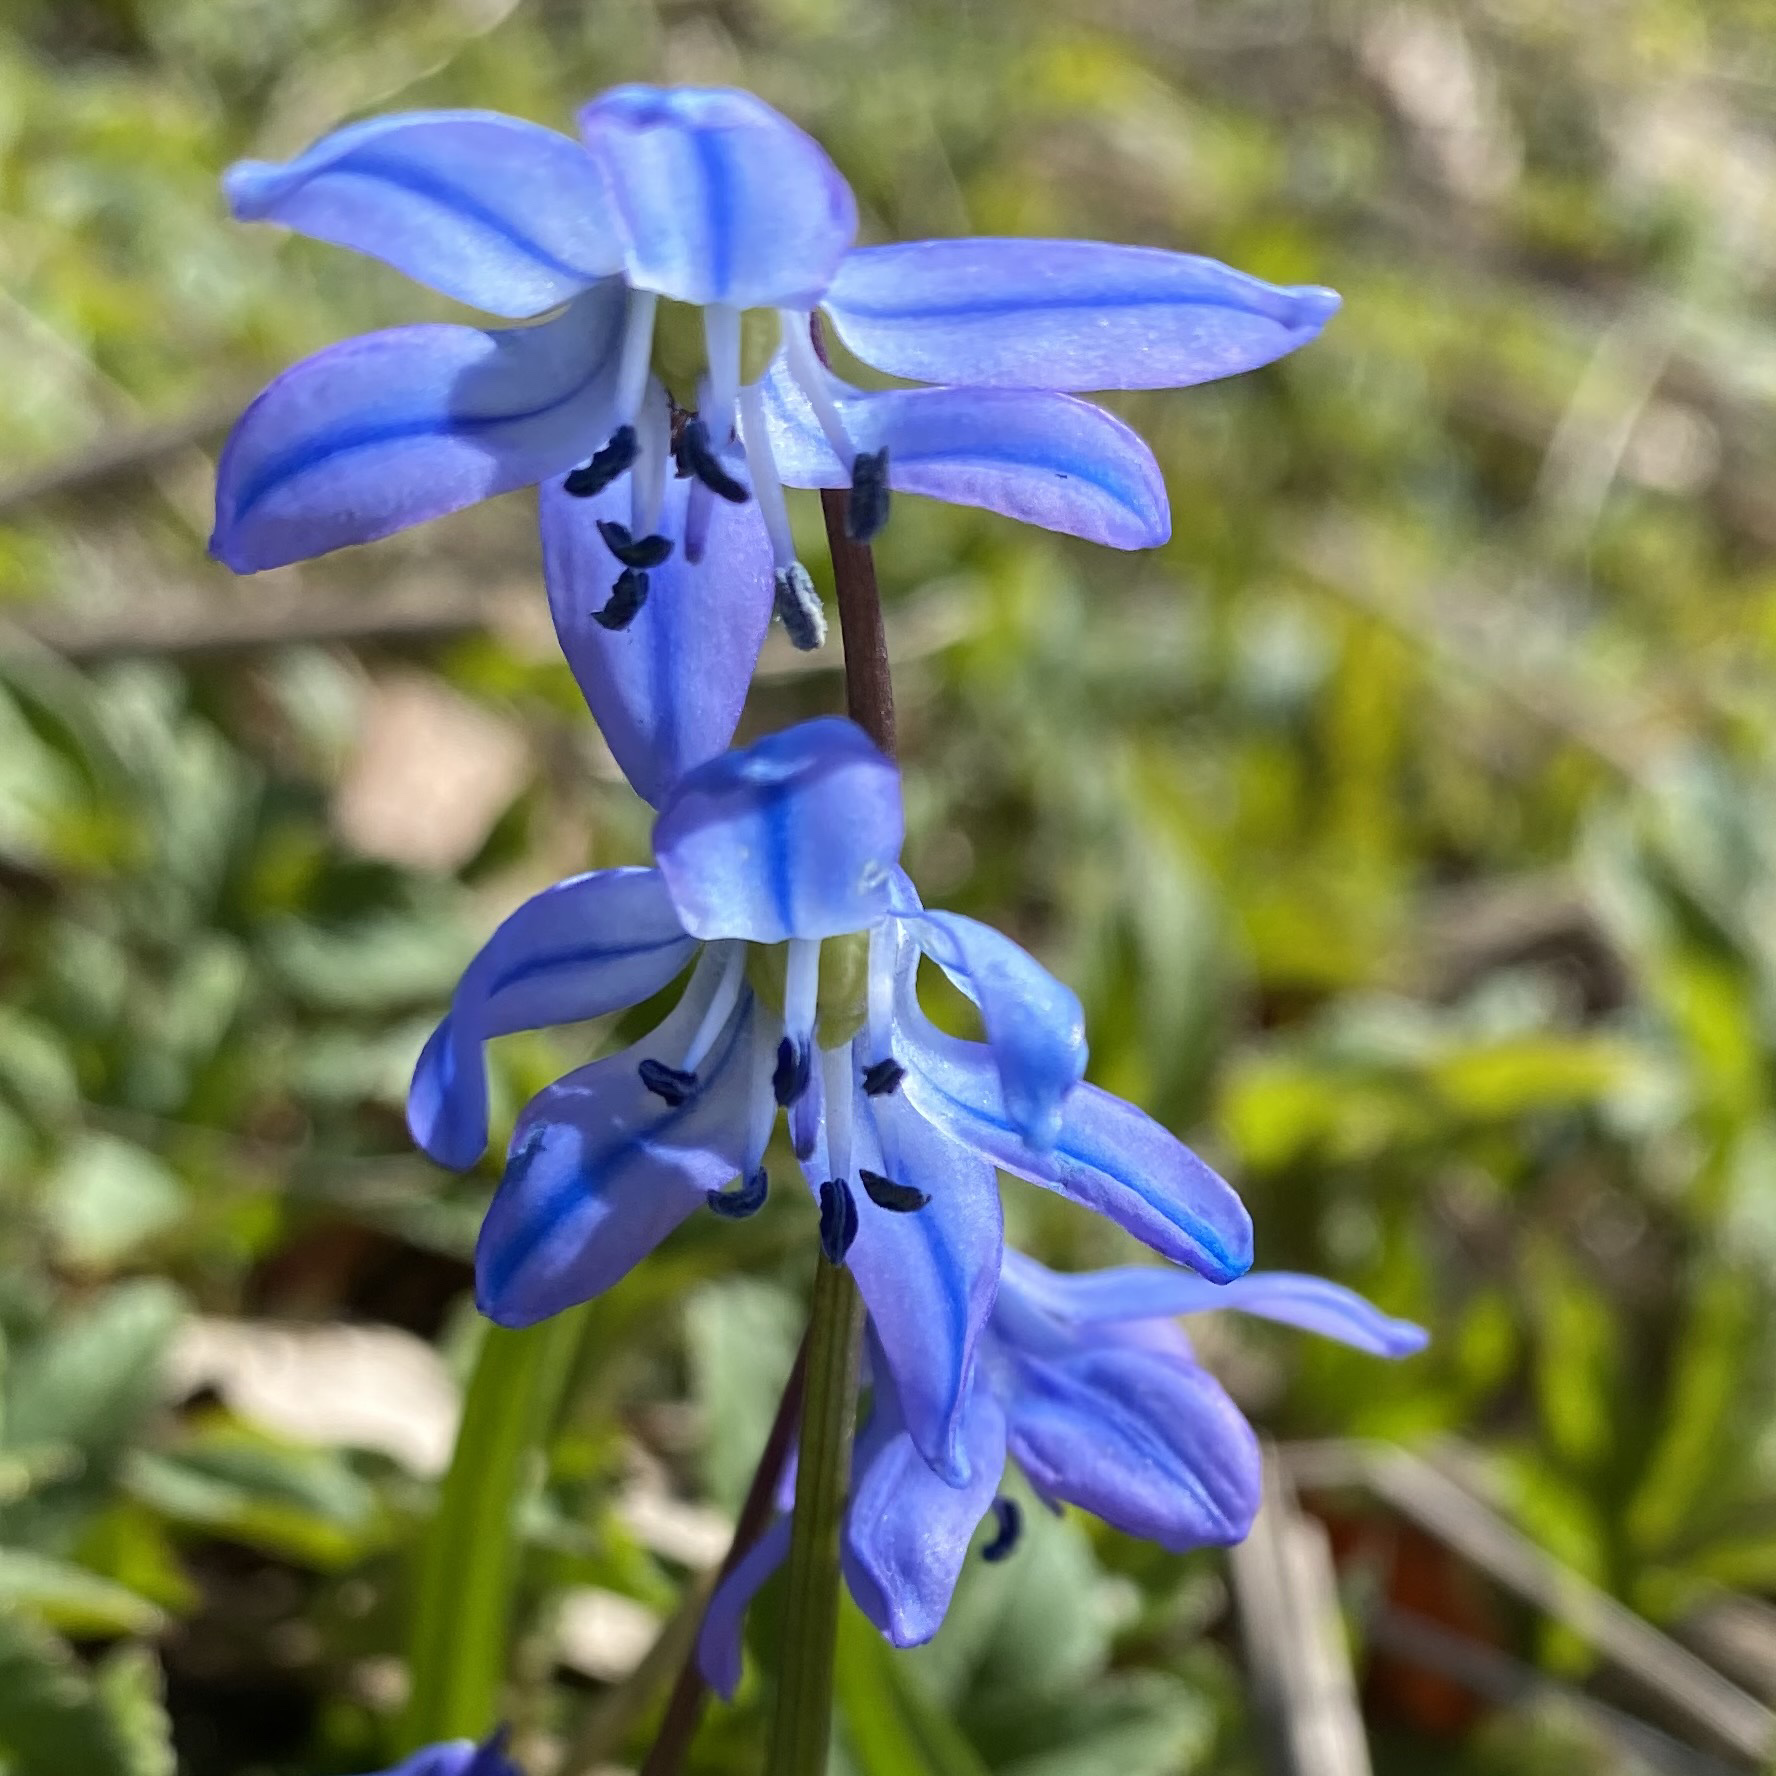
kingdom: Plantae
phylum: Tracheophyta
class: Liliopsida
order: Asparagales
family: Asparagaceae
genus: Scilla
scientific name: Scilla siberica
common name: Siberian squill
